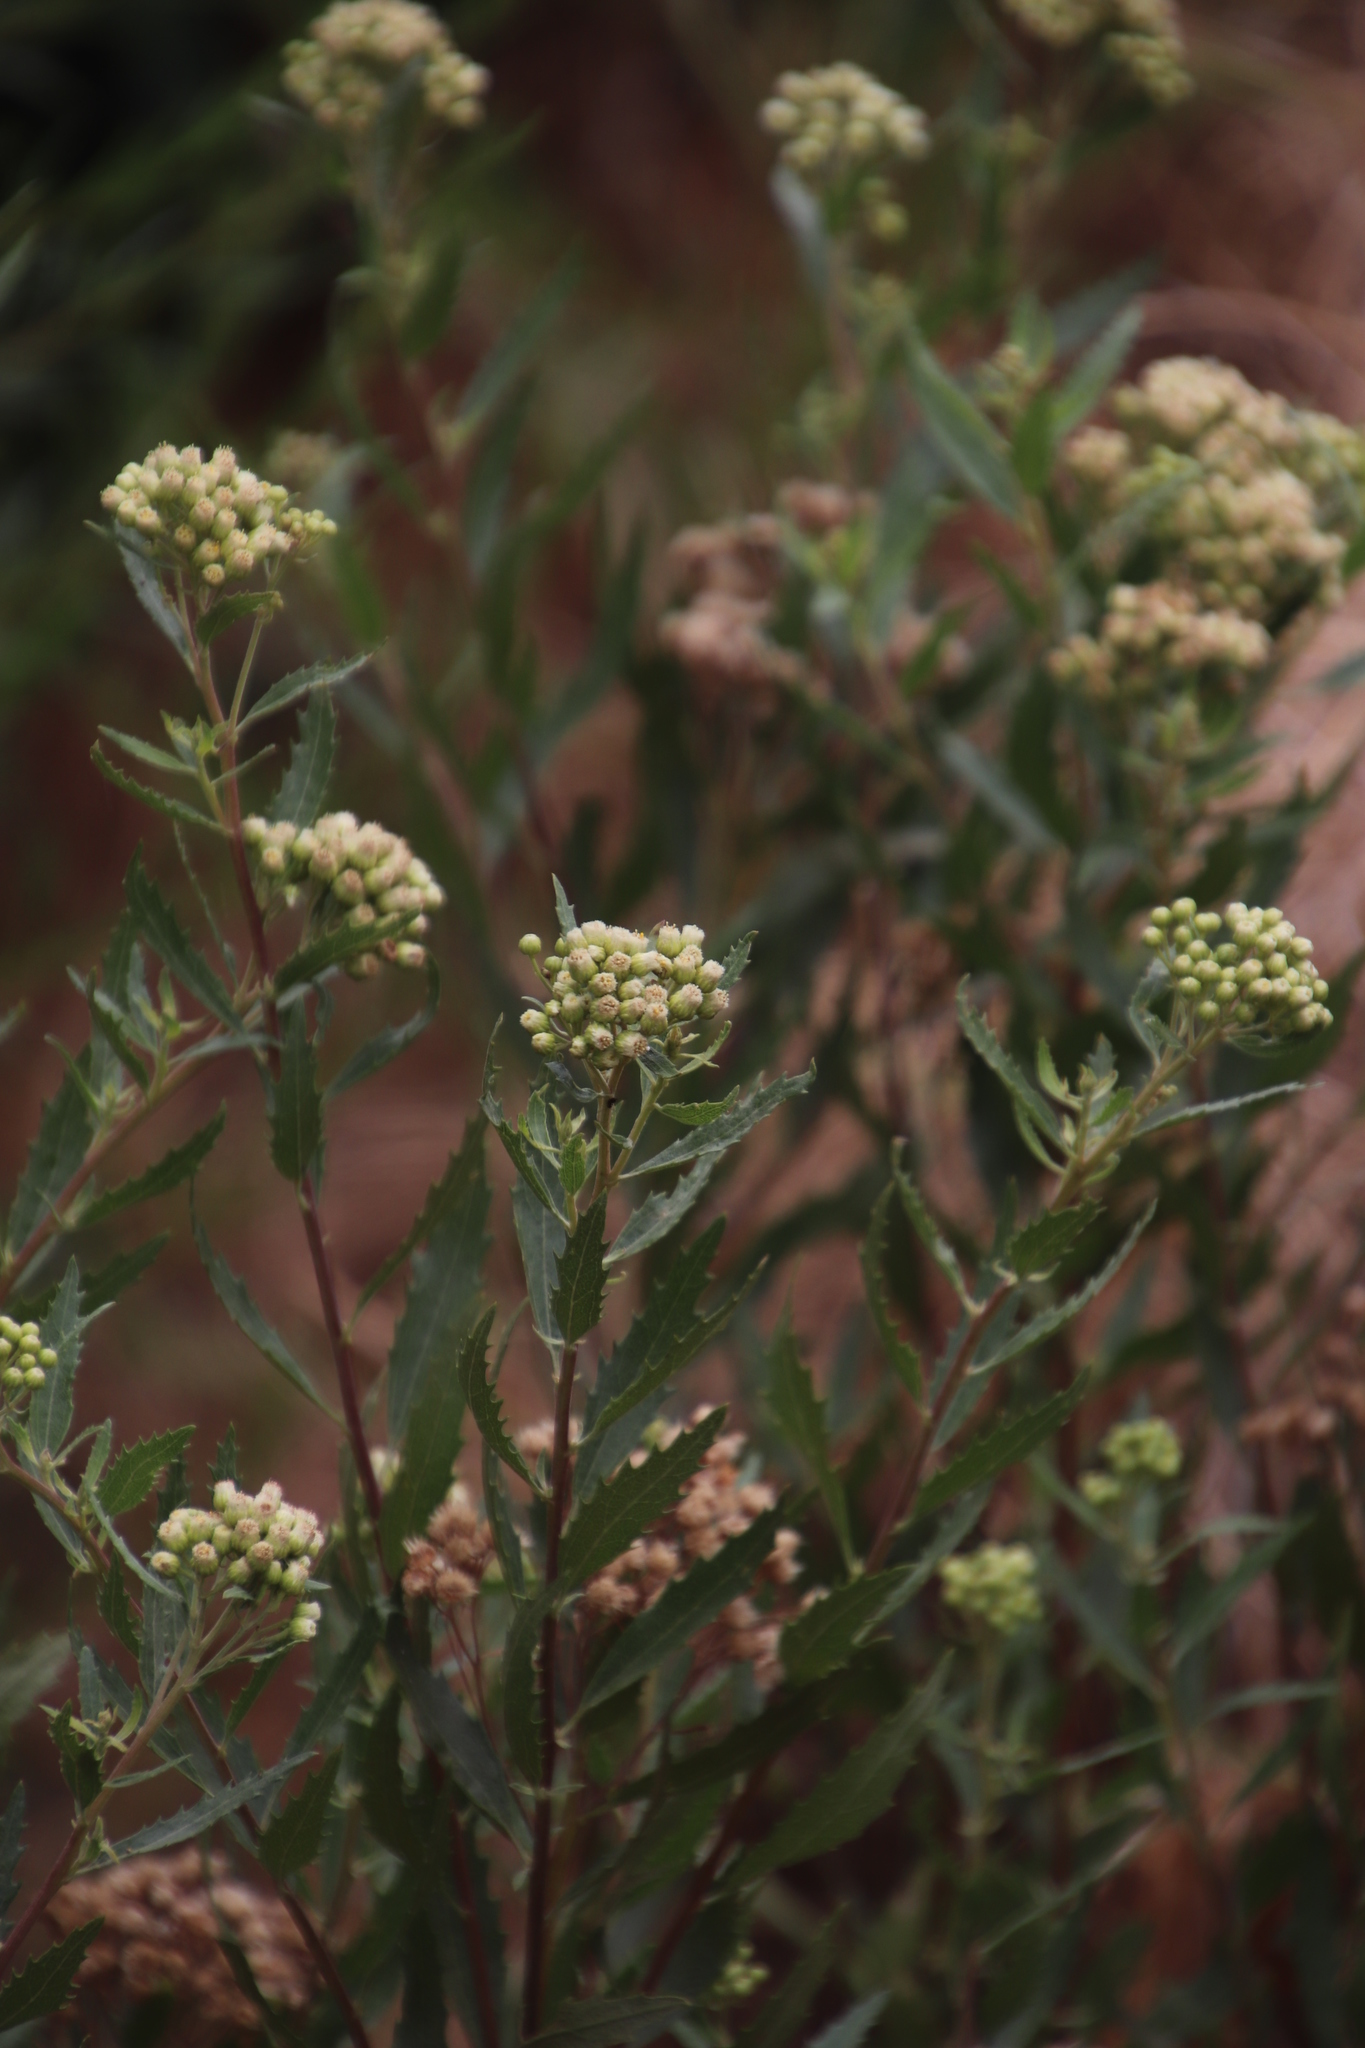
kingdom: Plantae
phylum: Tracheophyta
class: Magnoliopsida
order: Asterales
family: Asteraceae
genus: Nidorella
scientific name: Nidorella ivifolia
